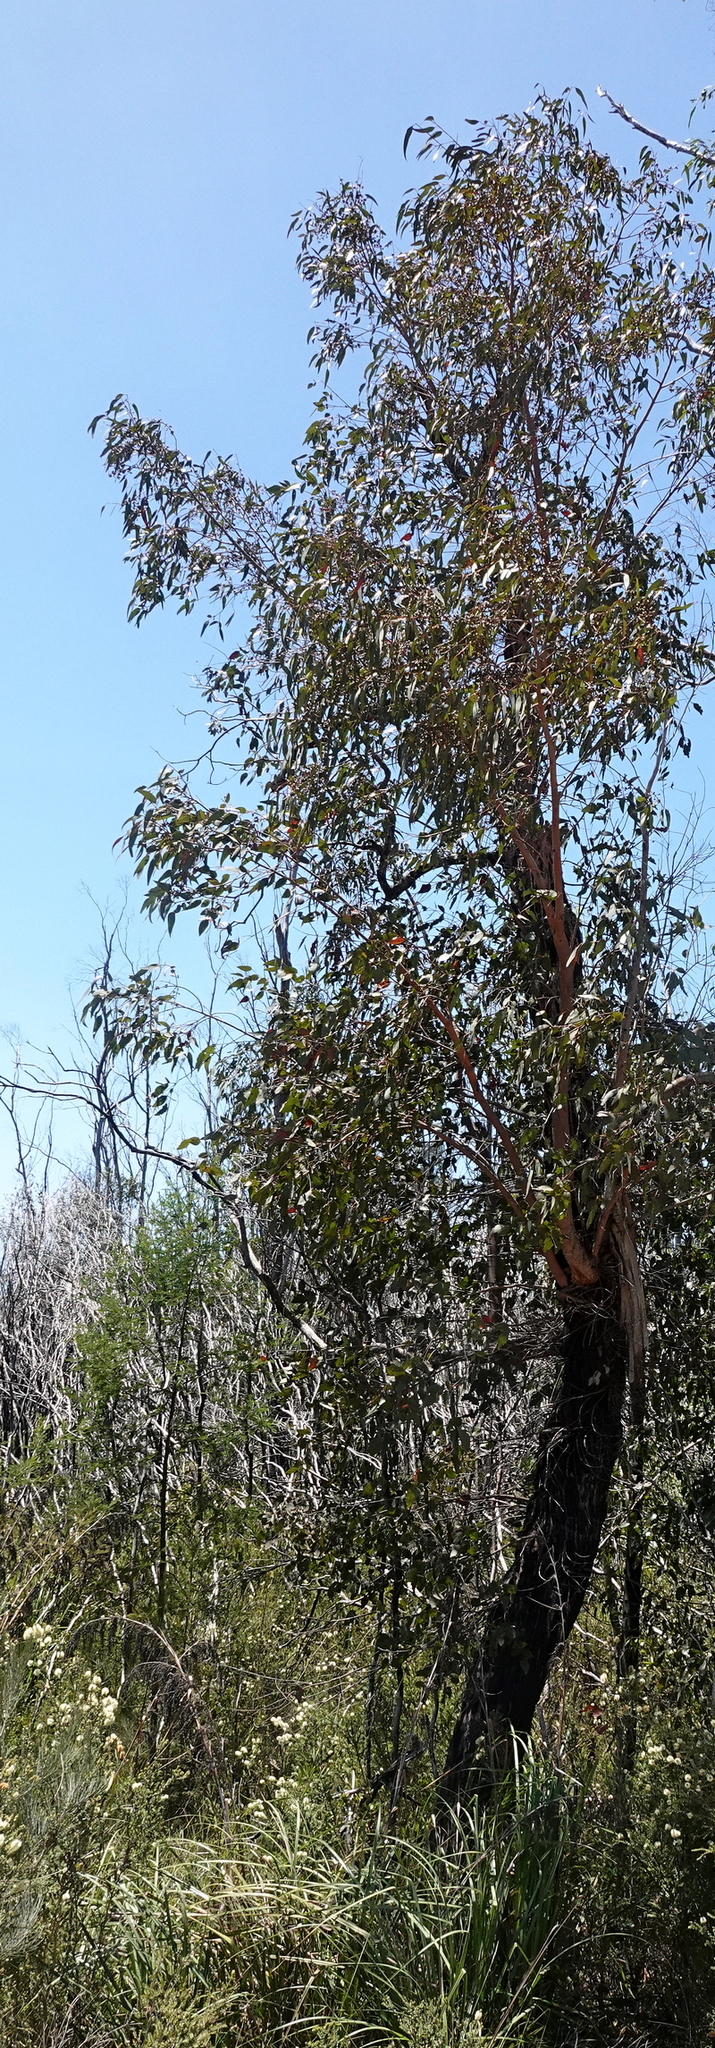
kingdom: Plantae
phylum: Tracheophyta
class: Magnoliopsida
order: Myrtales
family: Myrtaceae
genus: Eucalyptus
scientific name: Eucalyptus conspicua
